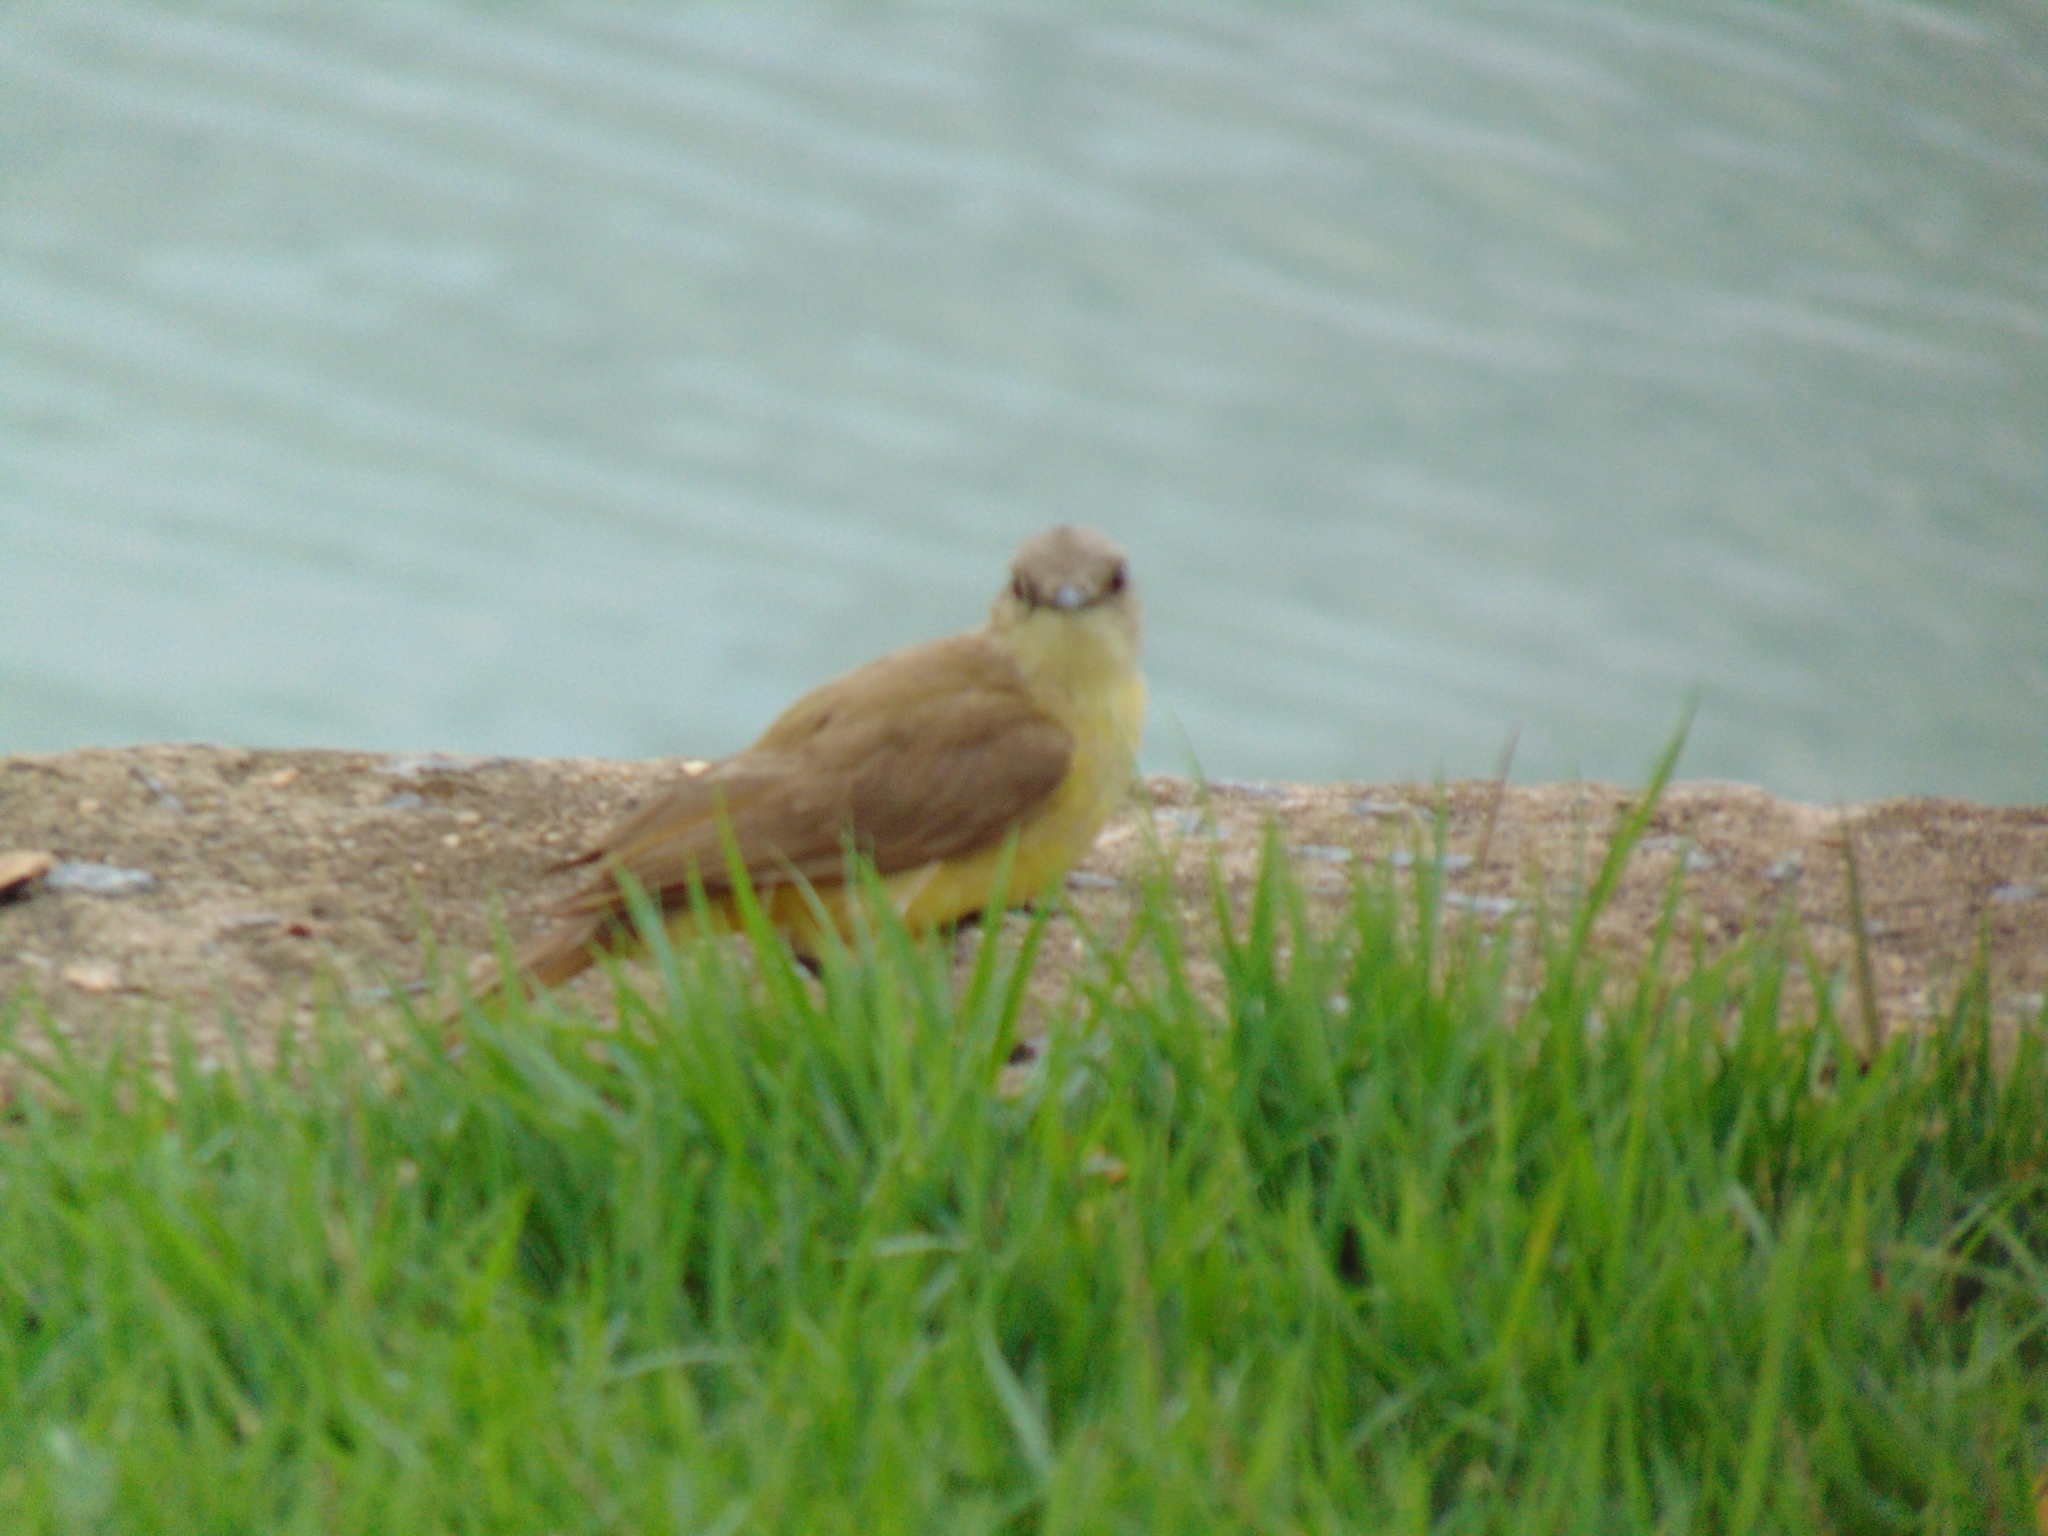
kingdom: Animalia
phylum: Chordata
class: Aves
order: Passeriformes
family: Tyrannidae
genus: Machetornis
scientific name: Machetornis rixosa
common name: Cattle tyrant
